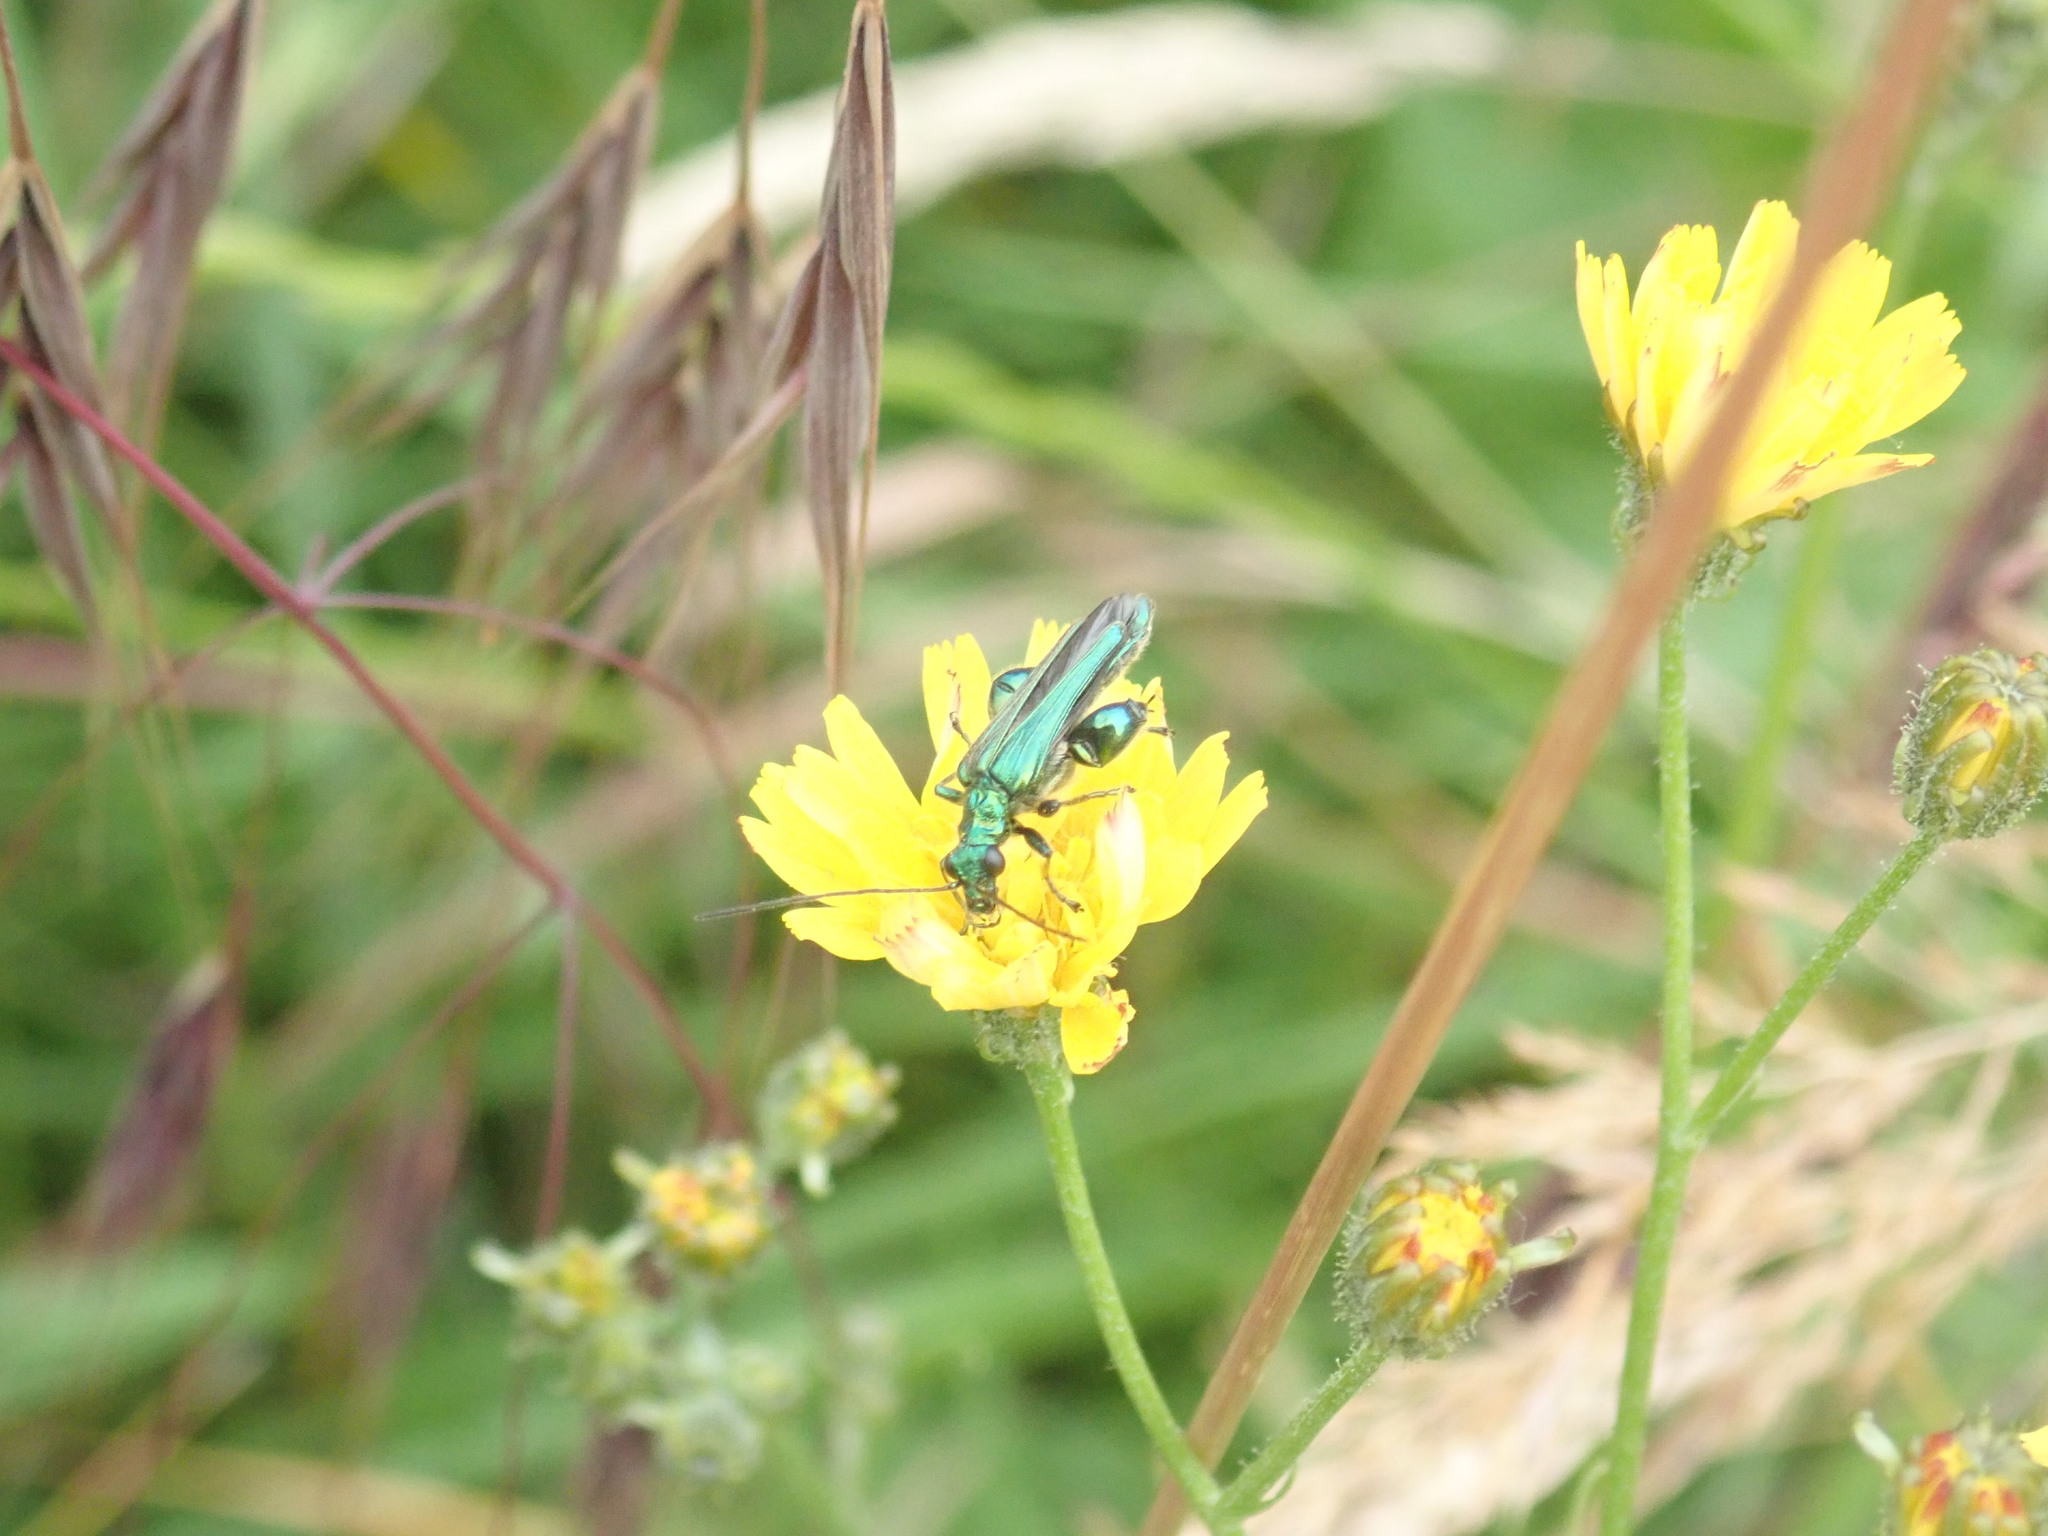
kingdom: Animalia
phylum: Arthropoda
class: Insecta
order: Coleoptera
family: Oedemeridae
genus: Oedemera
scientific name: Oedemera nobilis
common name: Swollen-thighed beetle
